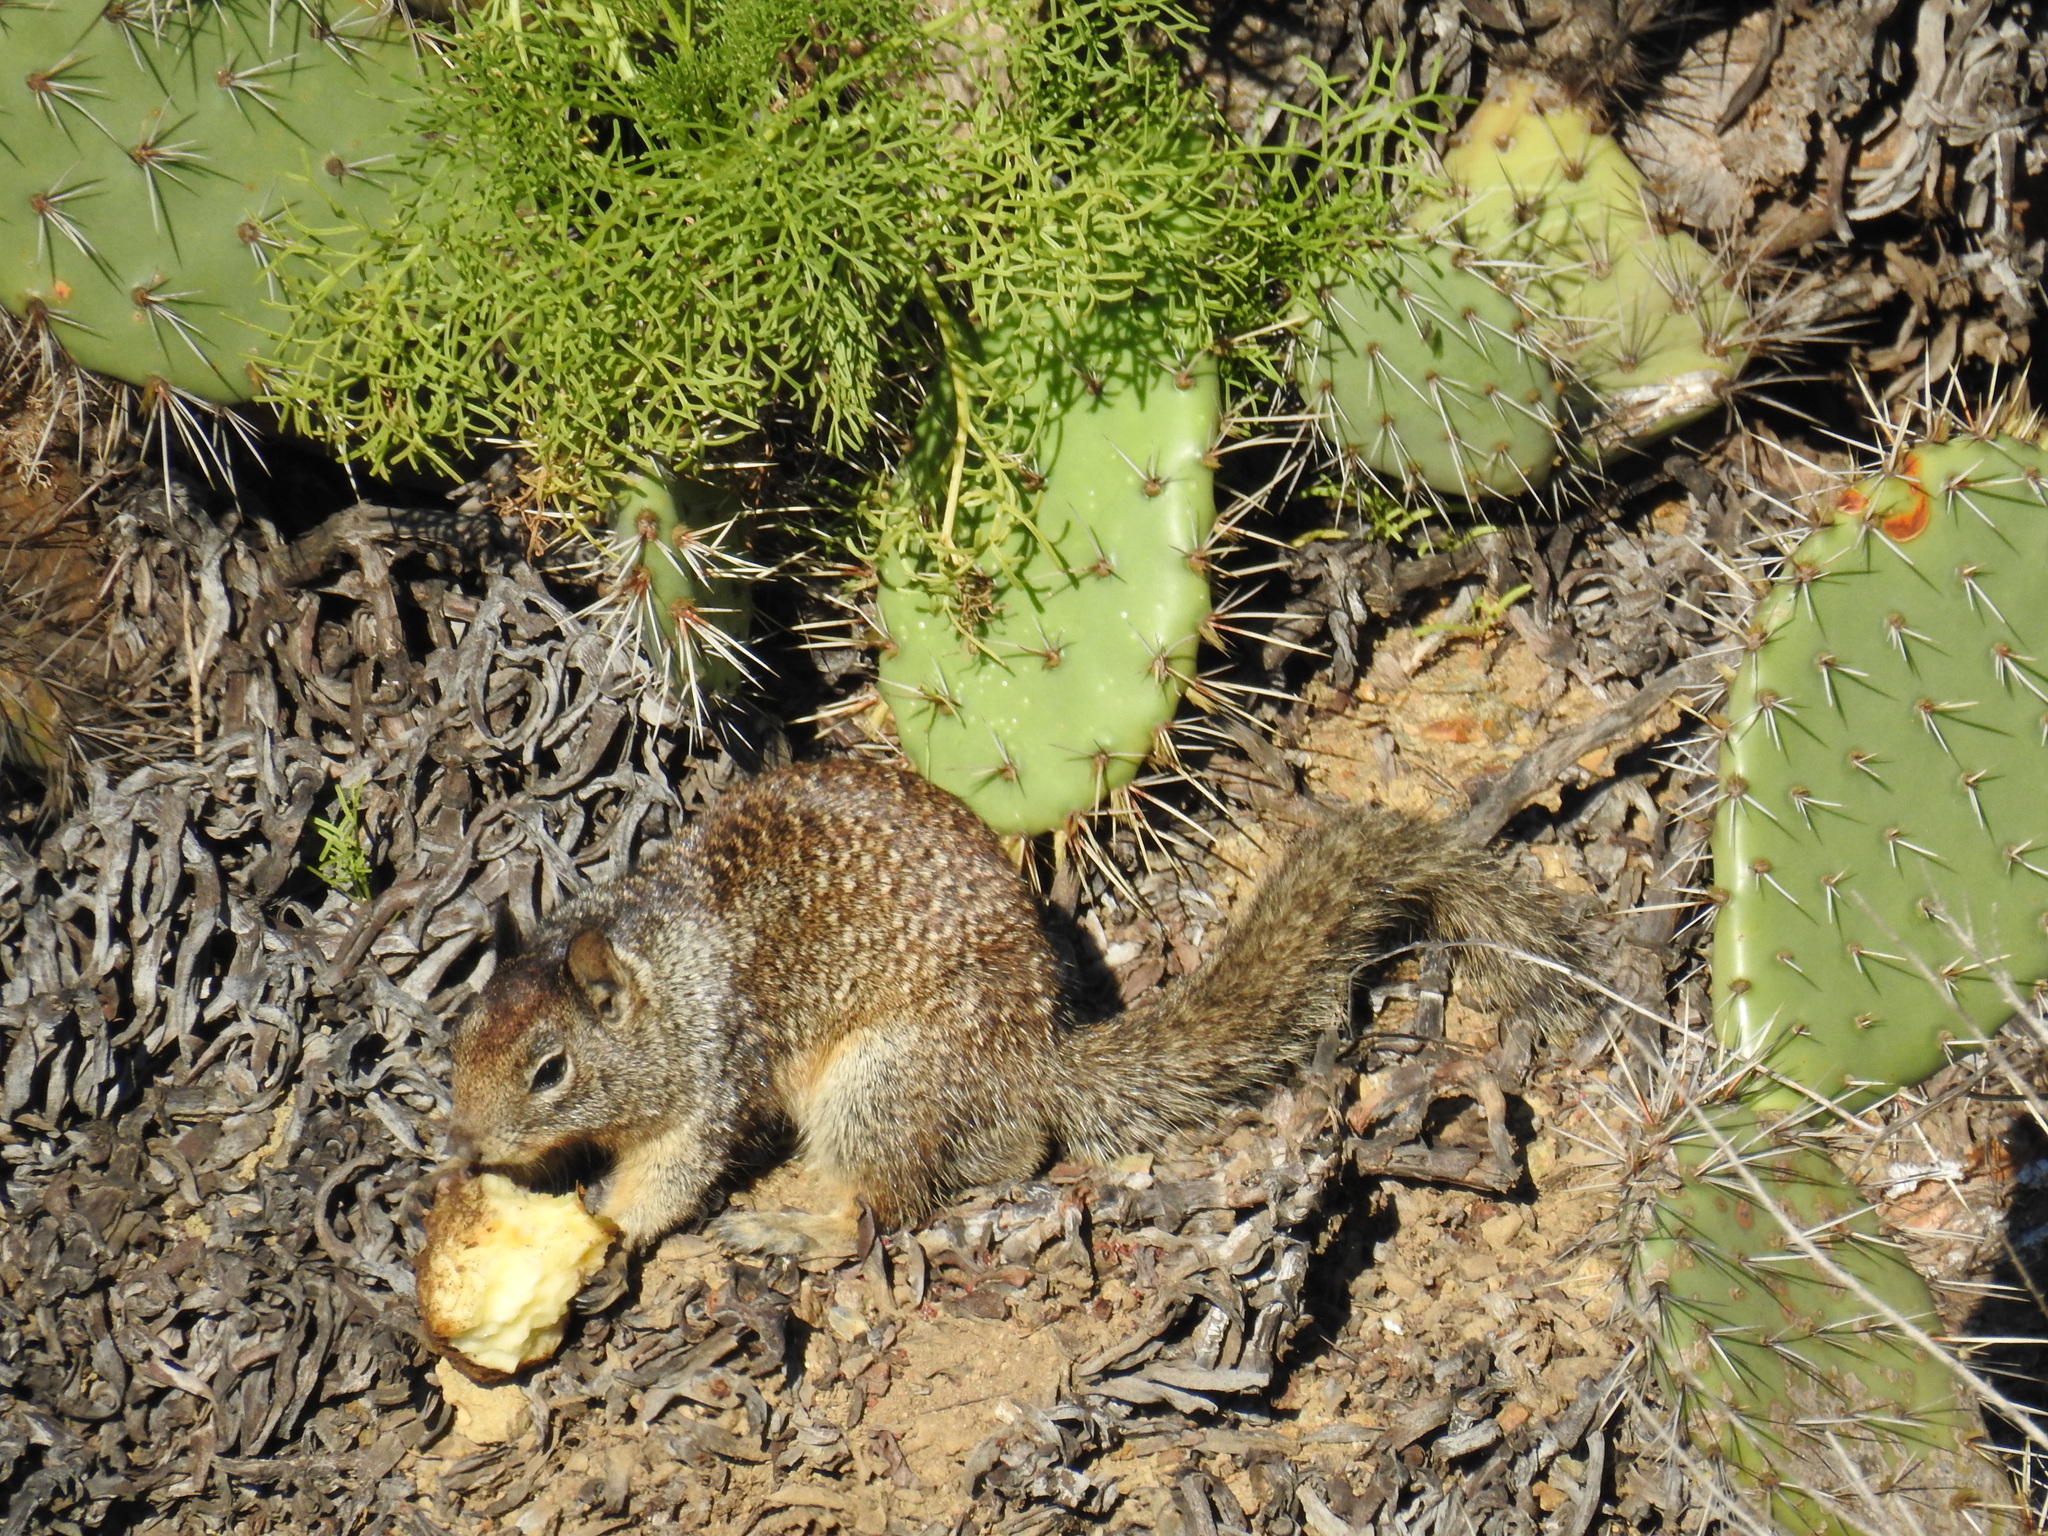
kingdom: Animalia
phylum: Chordata
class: Mammalia
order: Rodentia
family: Sciuridae
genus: Otospermophilus
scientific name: Otospermophilus beecheyi
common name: California ground squirrel
